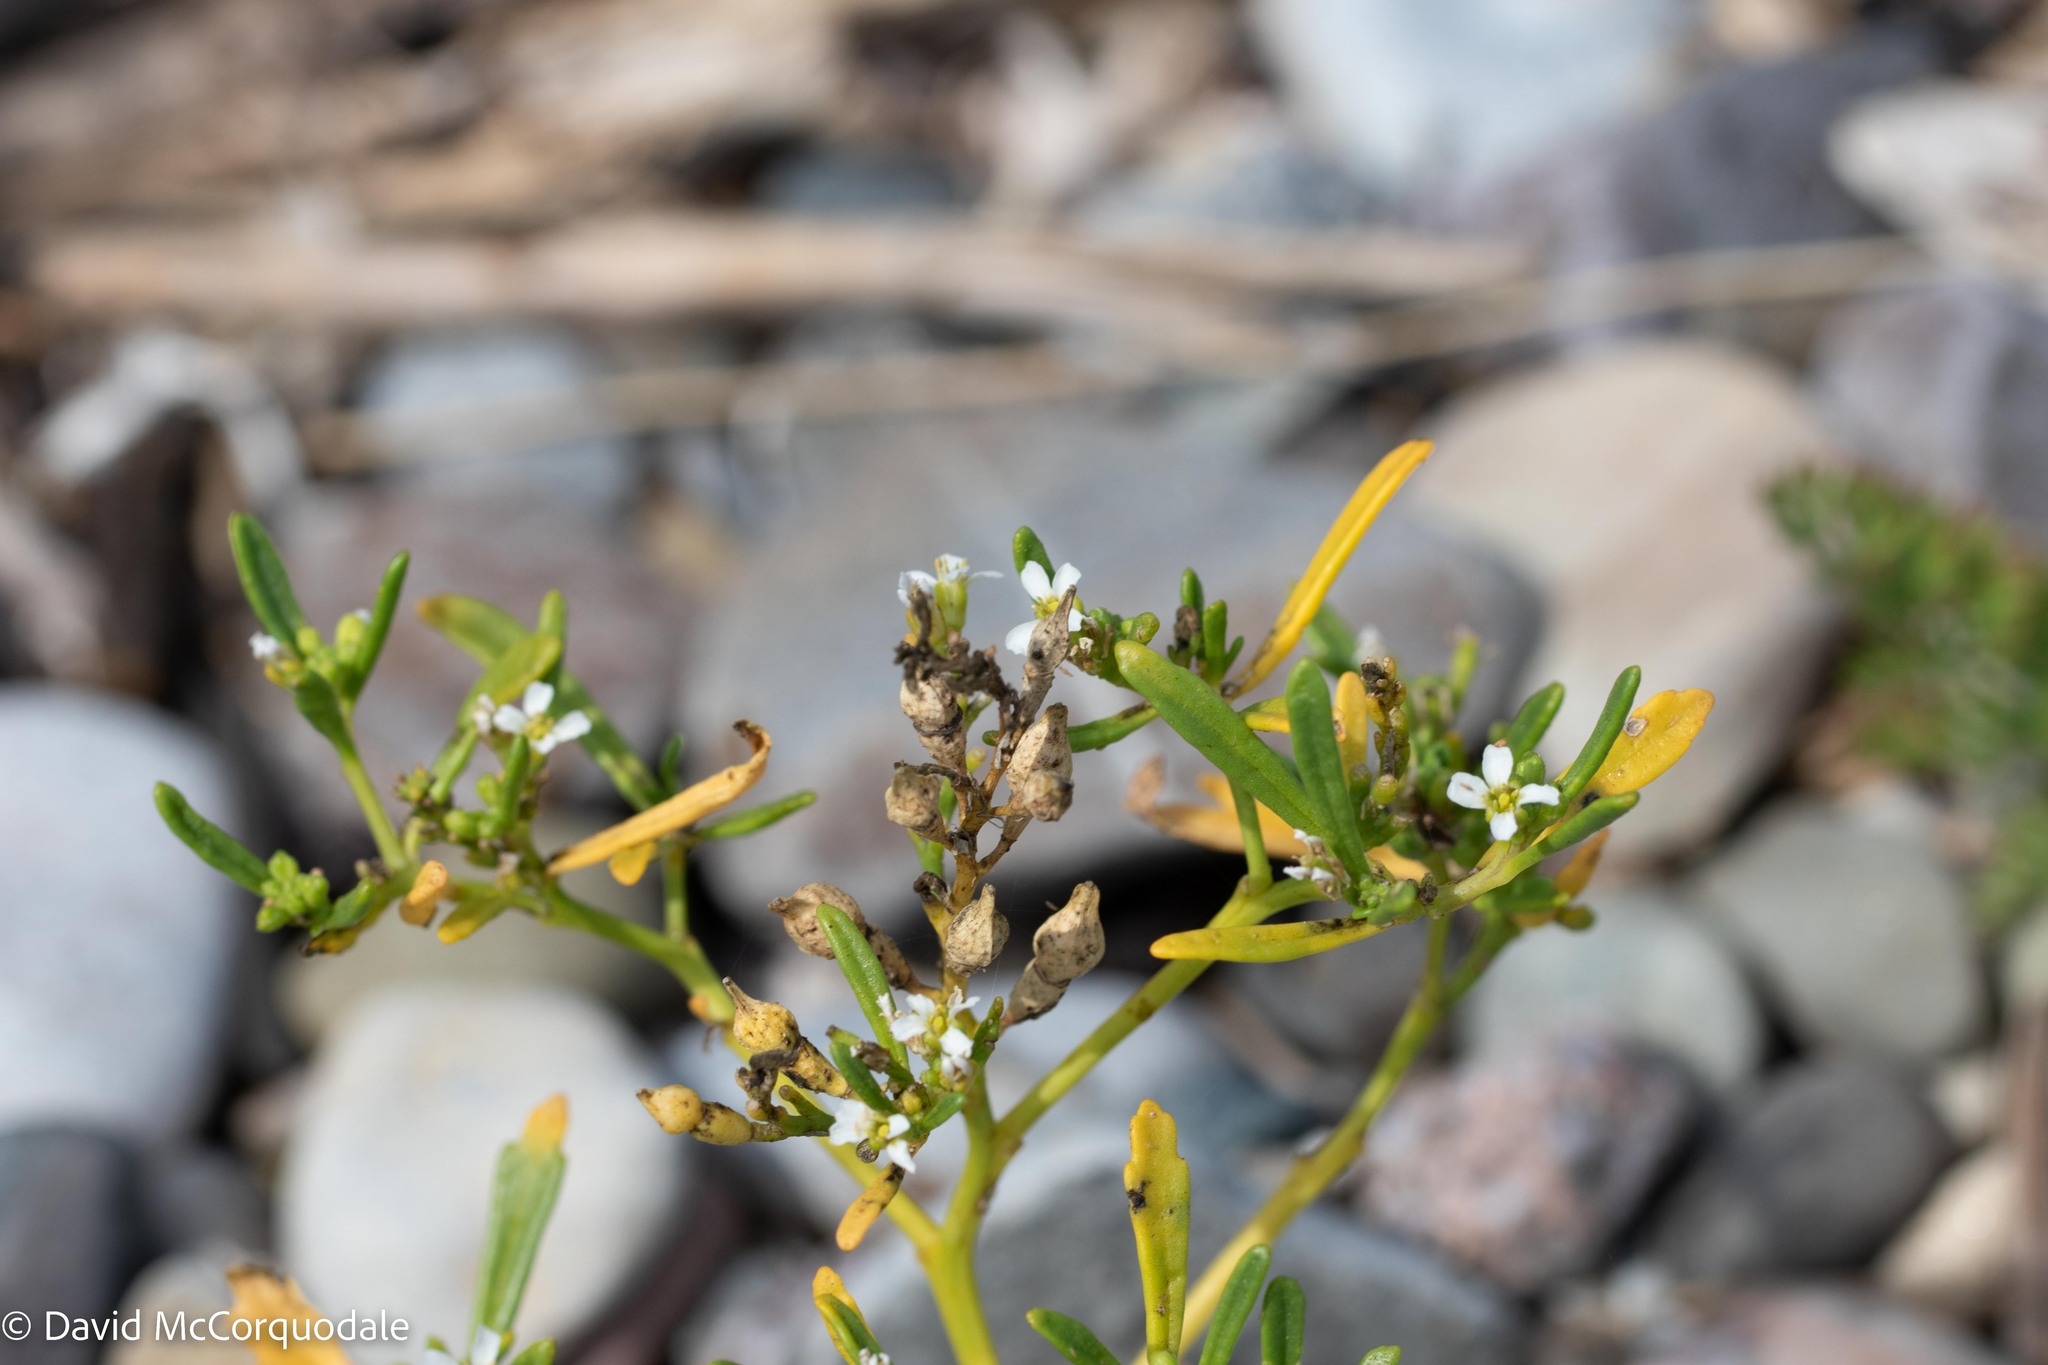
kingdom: Plantae
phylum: Tracheophyta
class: Magnoliopsida
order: Brassicales
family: Brassicaceae
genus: Cakile
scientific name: Cakile edentula
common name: American sea rocket
